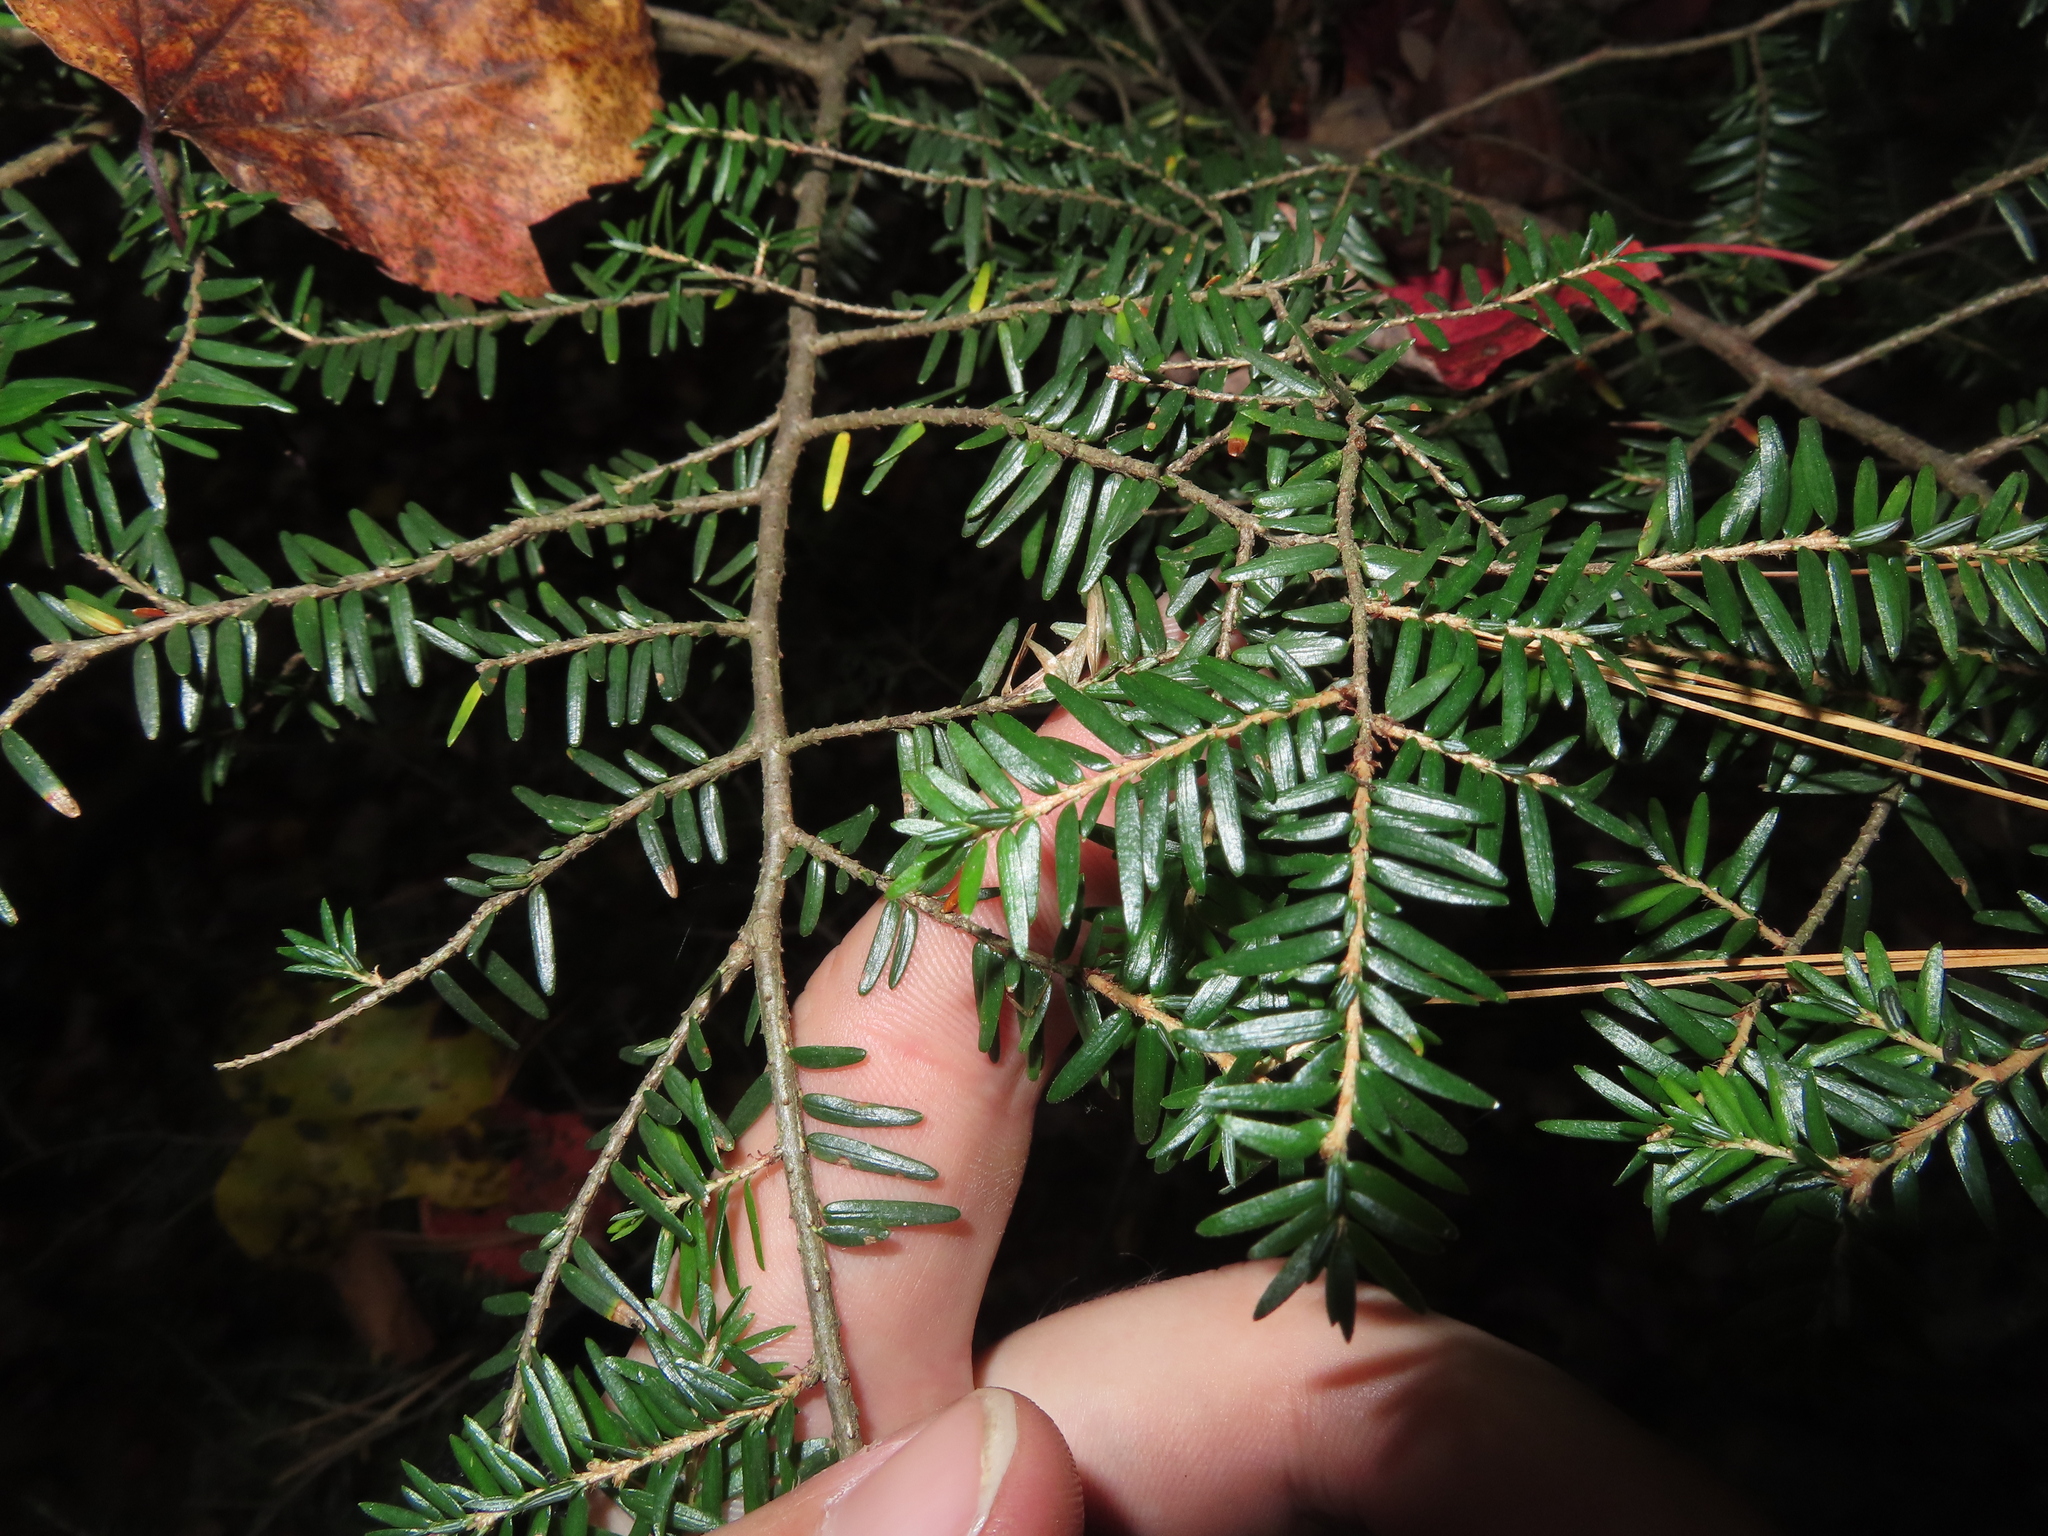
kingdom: Plantae
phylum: Tracheophyta
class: Pinopsida
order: Pinales
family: Pinaceae
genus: Tsuga
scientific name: Tsuga canadensis
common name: Eastern hemlock
